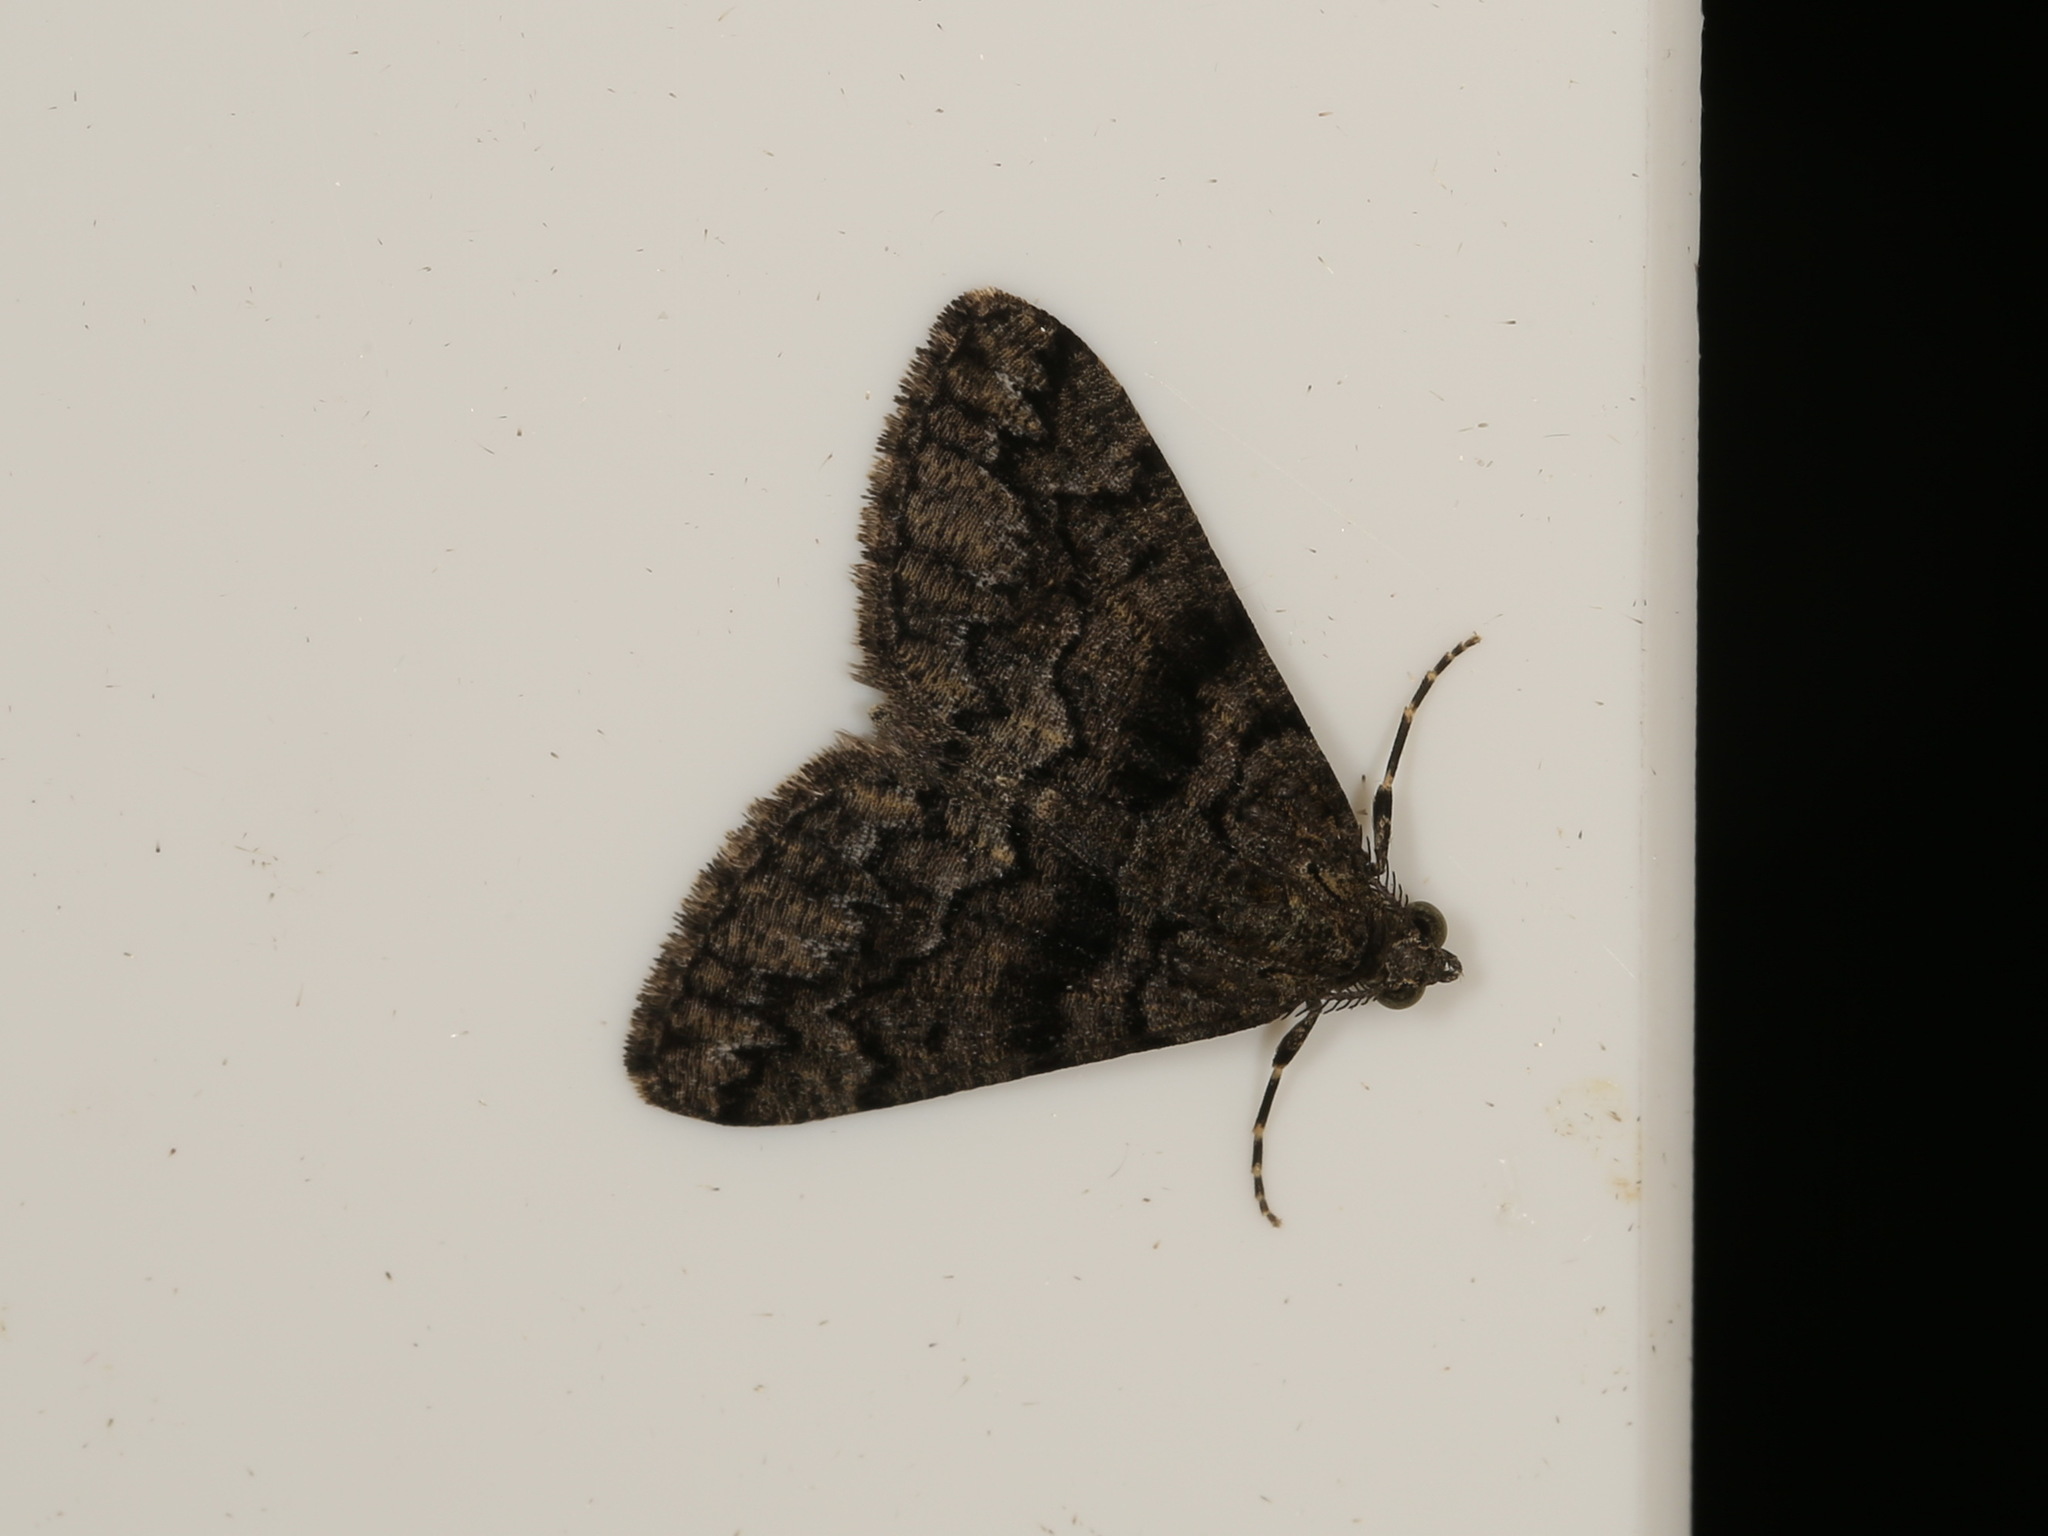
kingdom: Animalia
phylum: Arthropoda
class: Insecta
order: Lepidoptera
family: Geometridae
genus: Lipogya
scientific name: Lipogya exprimataria
